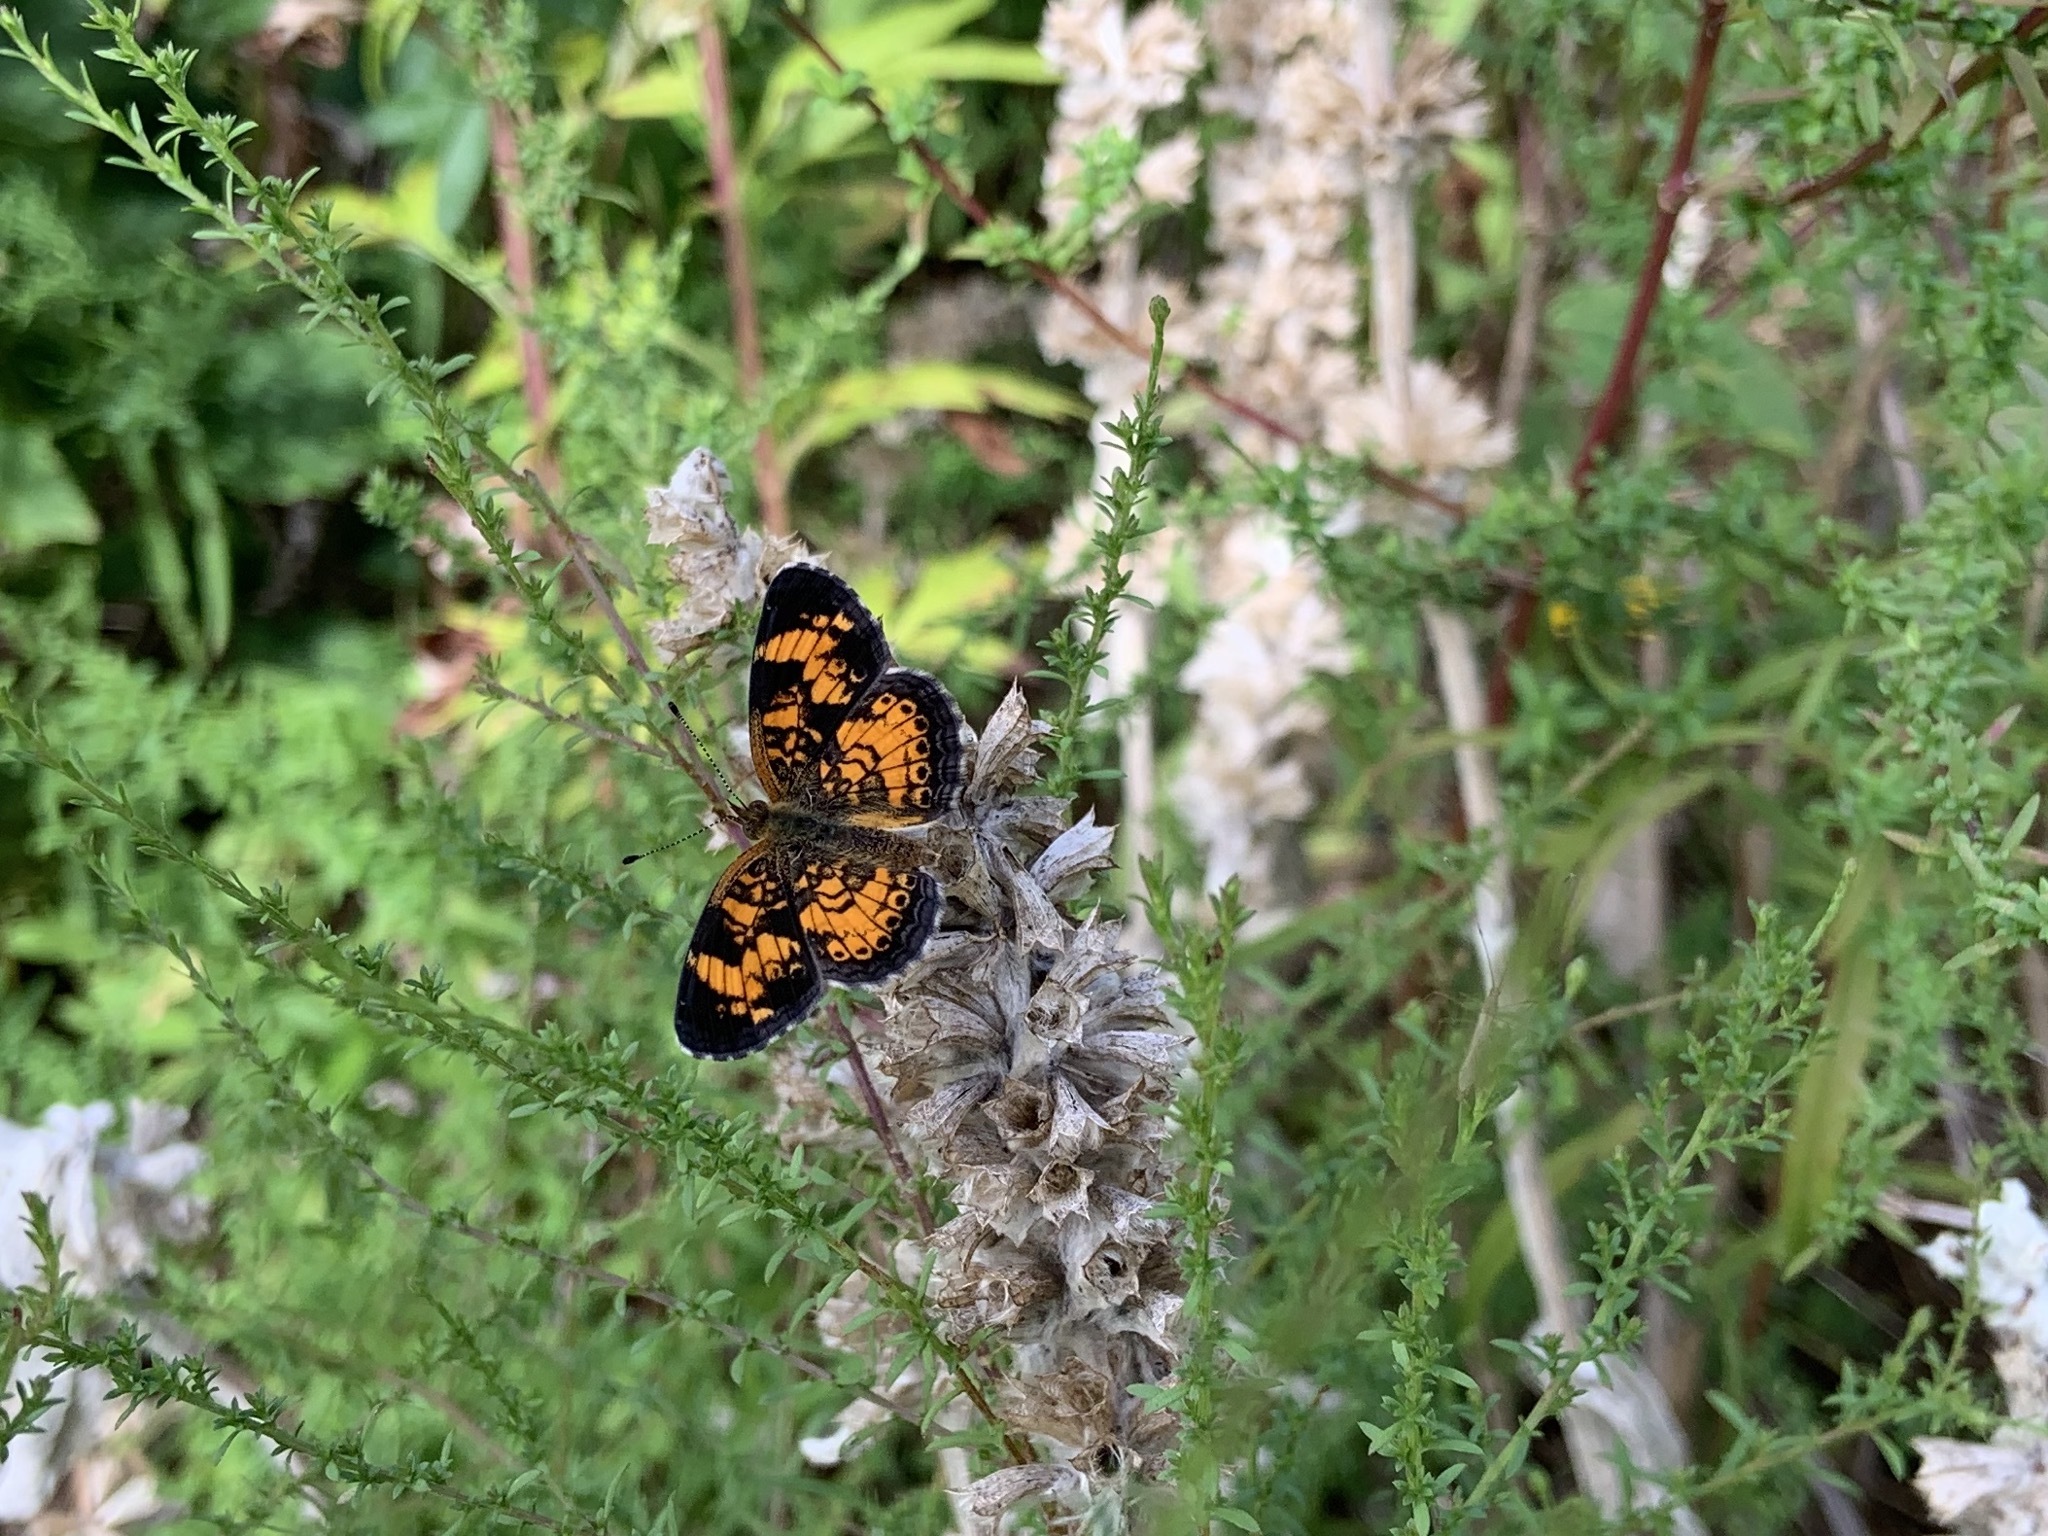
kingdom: Animalia
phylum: Arthropoda
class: Insecta
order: Lepidoptera
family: Nymphalidae
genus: Phyciodes
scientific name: Phyciodes tharos
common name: Pearl crescent
